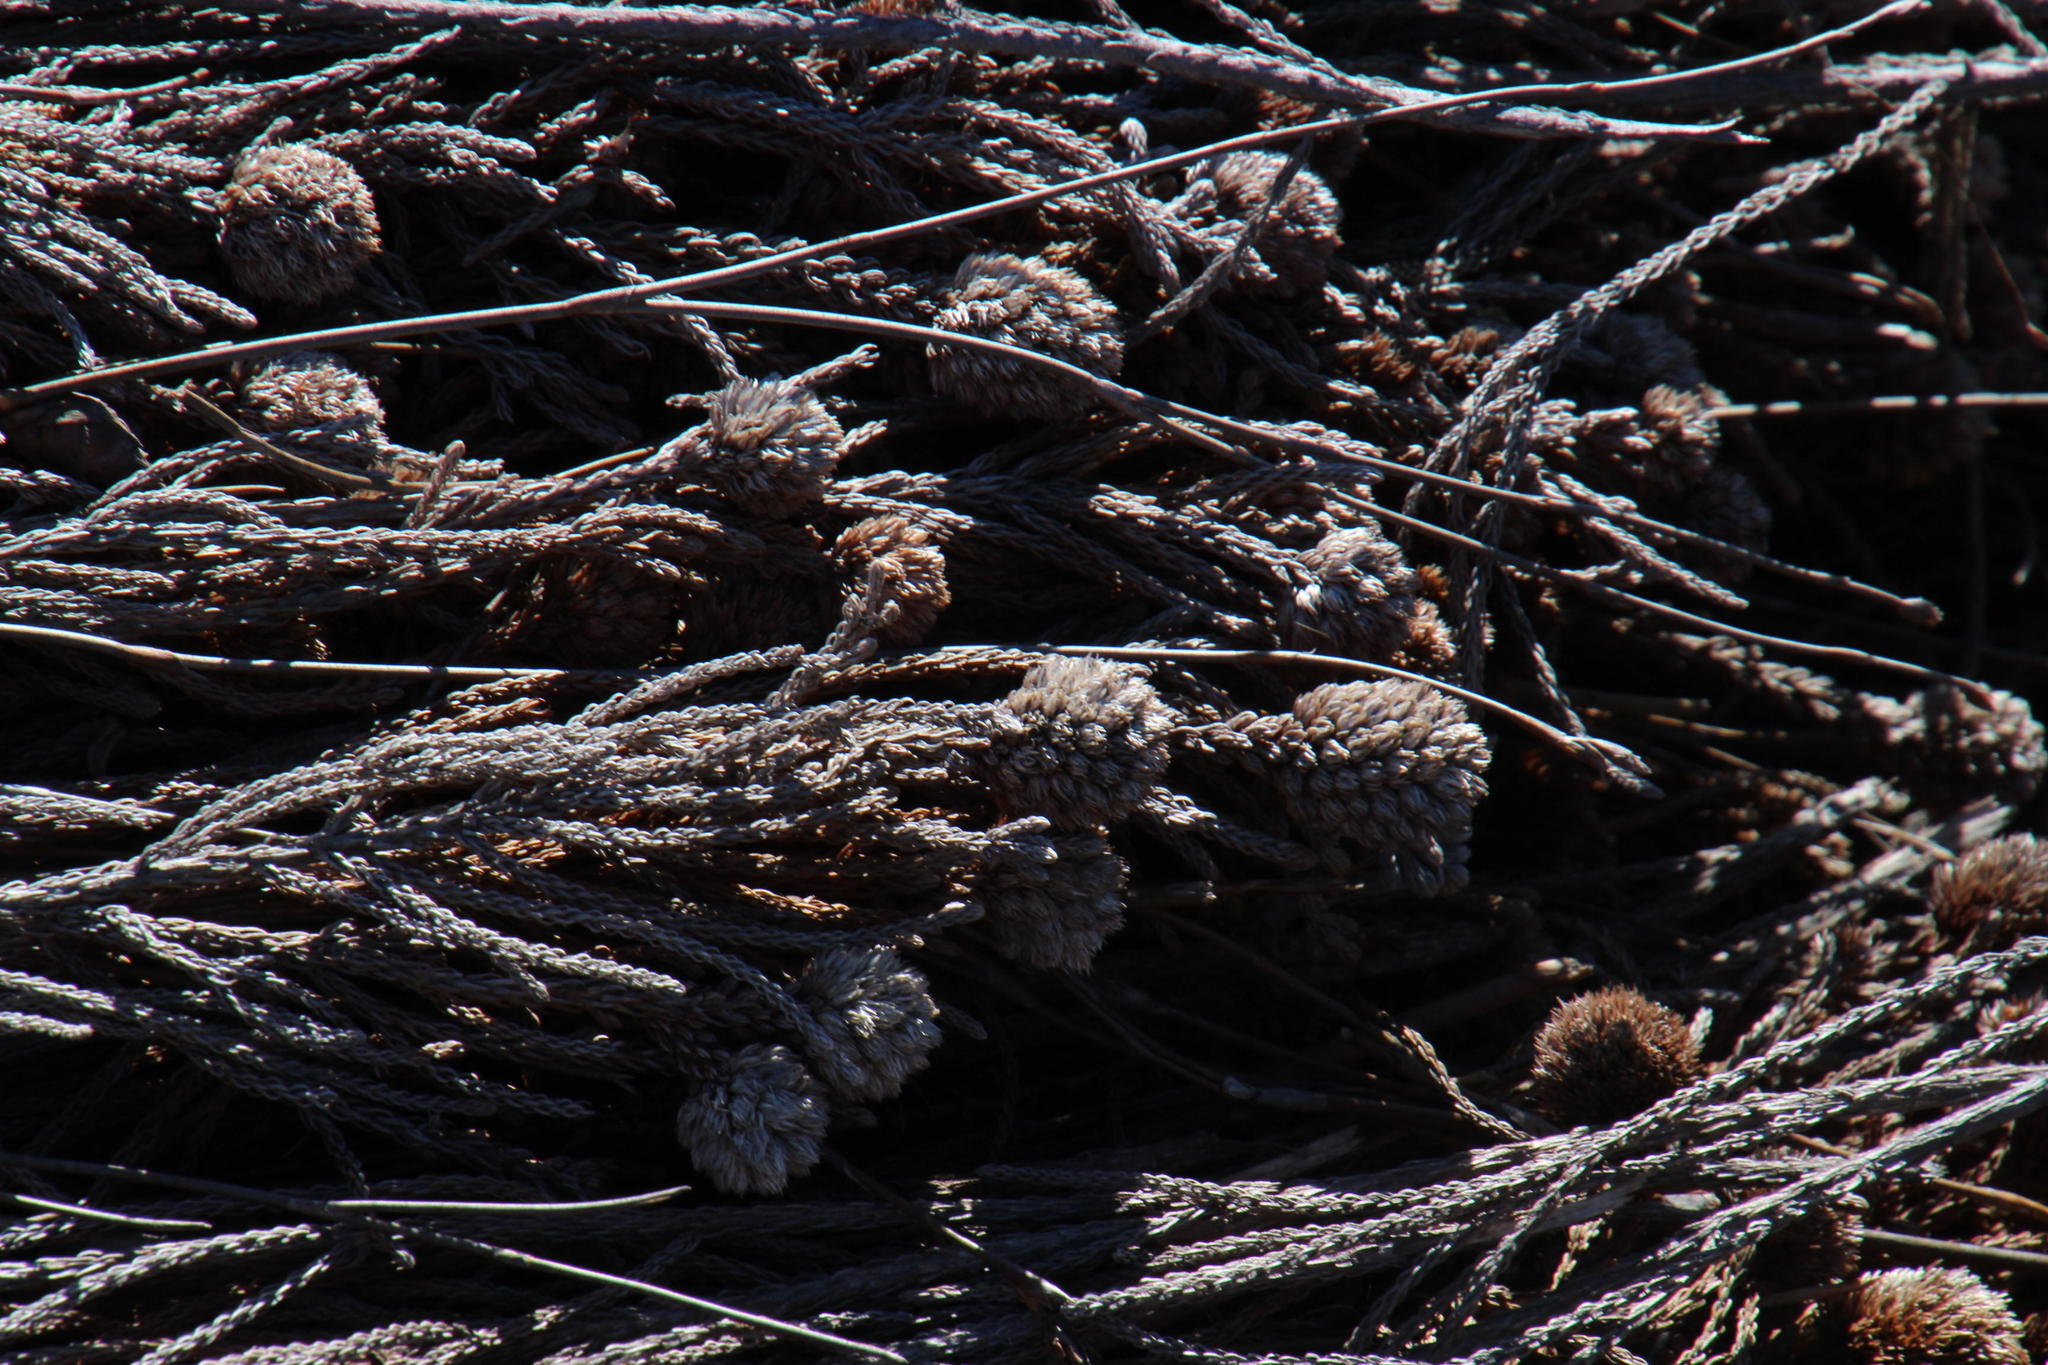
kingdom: Plantae
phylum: Tracheophyta
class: Magnoliopsida
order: Bruniales
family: Bruniaceae
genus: Brunia
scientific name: Brunia fragarioides
